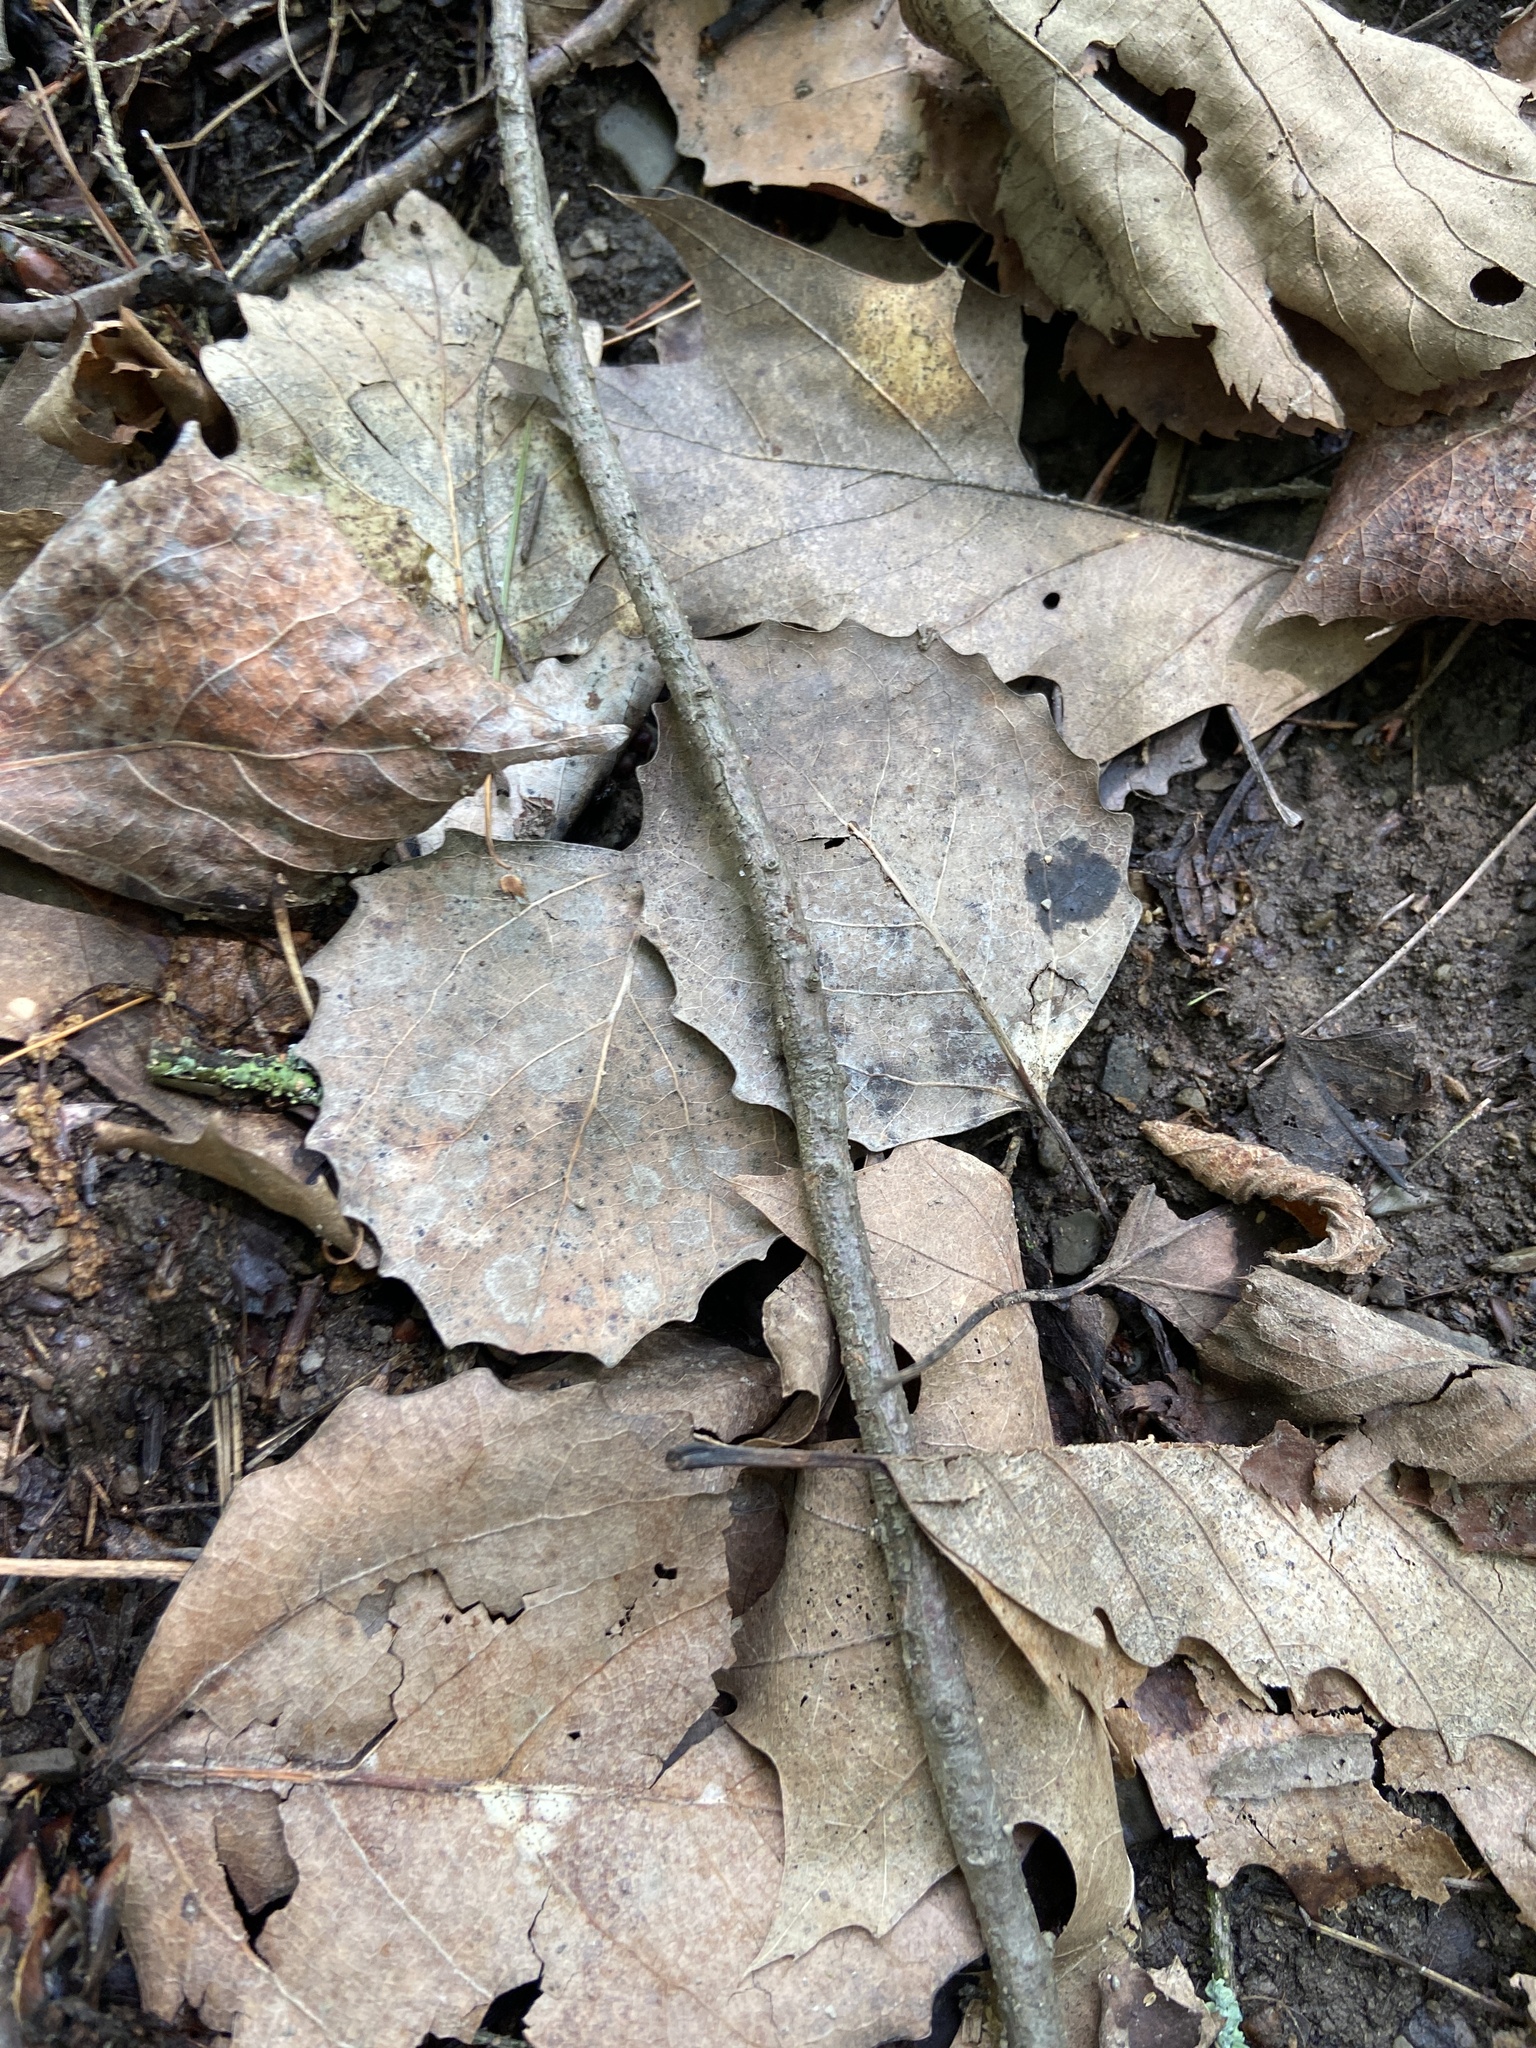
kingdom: Plantae
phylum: Tracheophyta
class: Magnoliopsida
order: Malpighiales
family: Salicaceae
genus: Populus
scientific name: Populus grandidentata
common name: Bigtooth aspen
